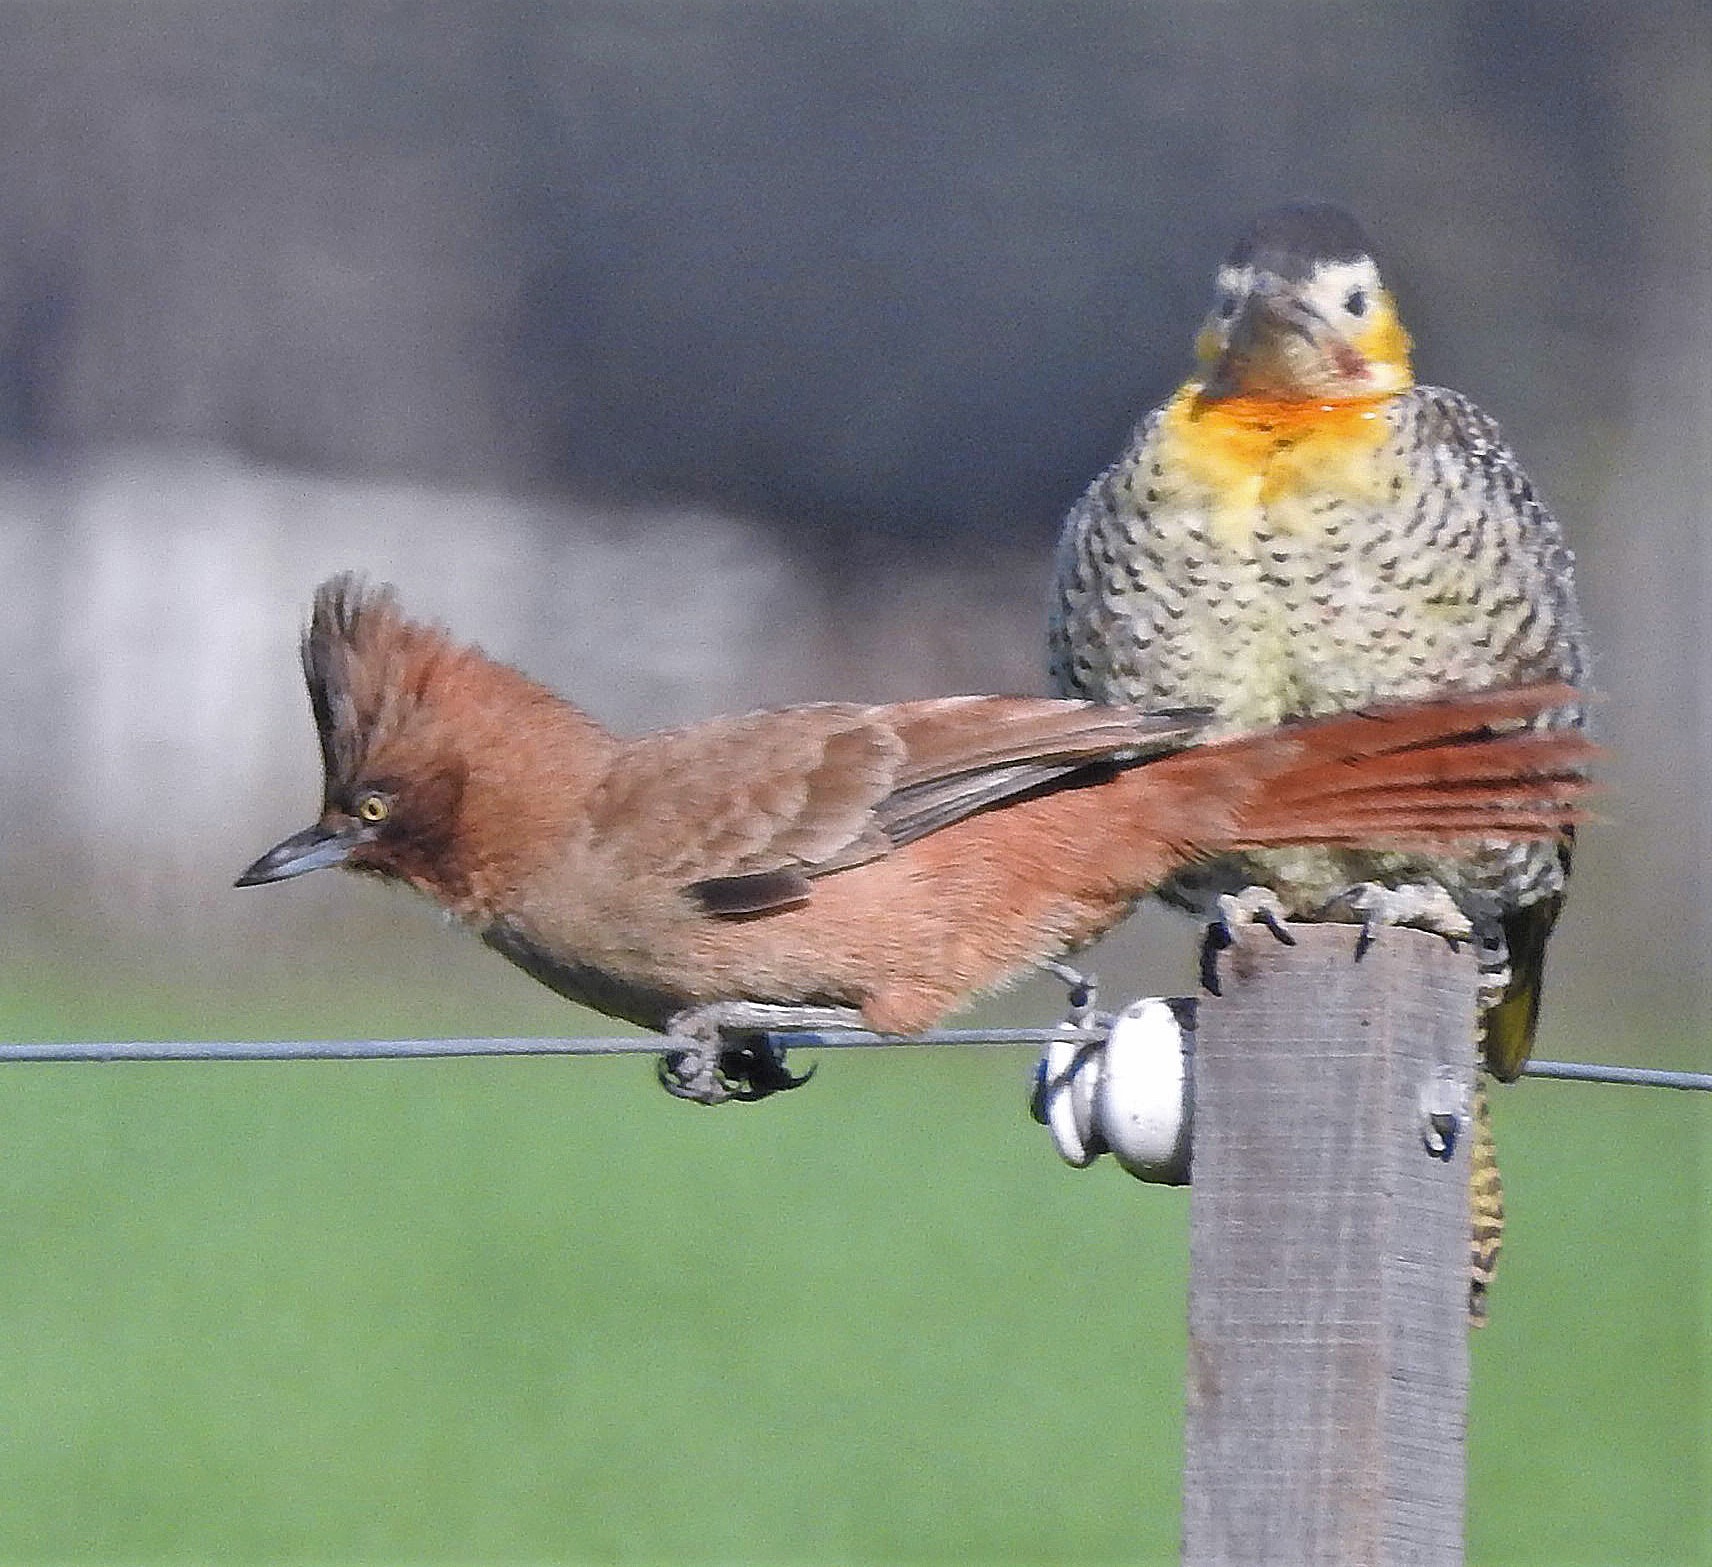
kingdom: Animalia
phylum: Chordata
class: Aves
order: Passeriformes
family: Furnariidae
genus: Pseudoseisura
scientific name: Pseudoseisura lophotes
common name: Brown cacholote
